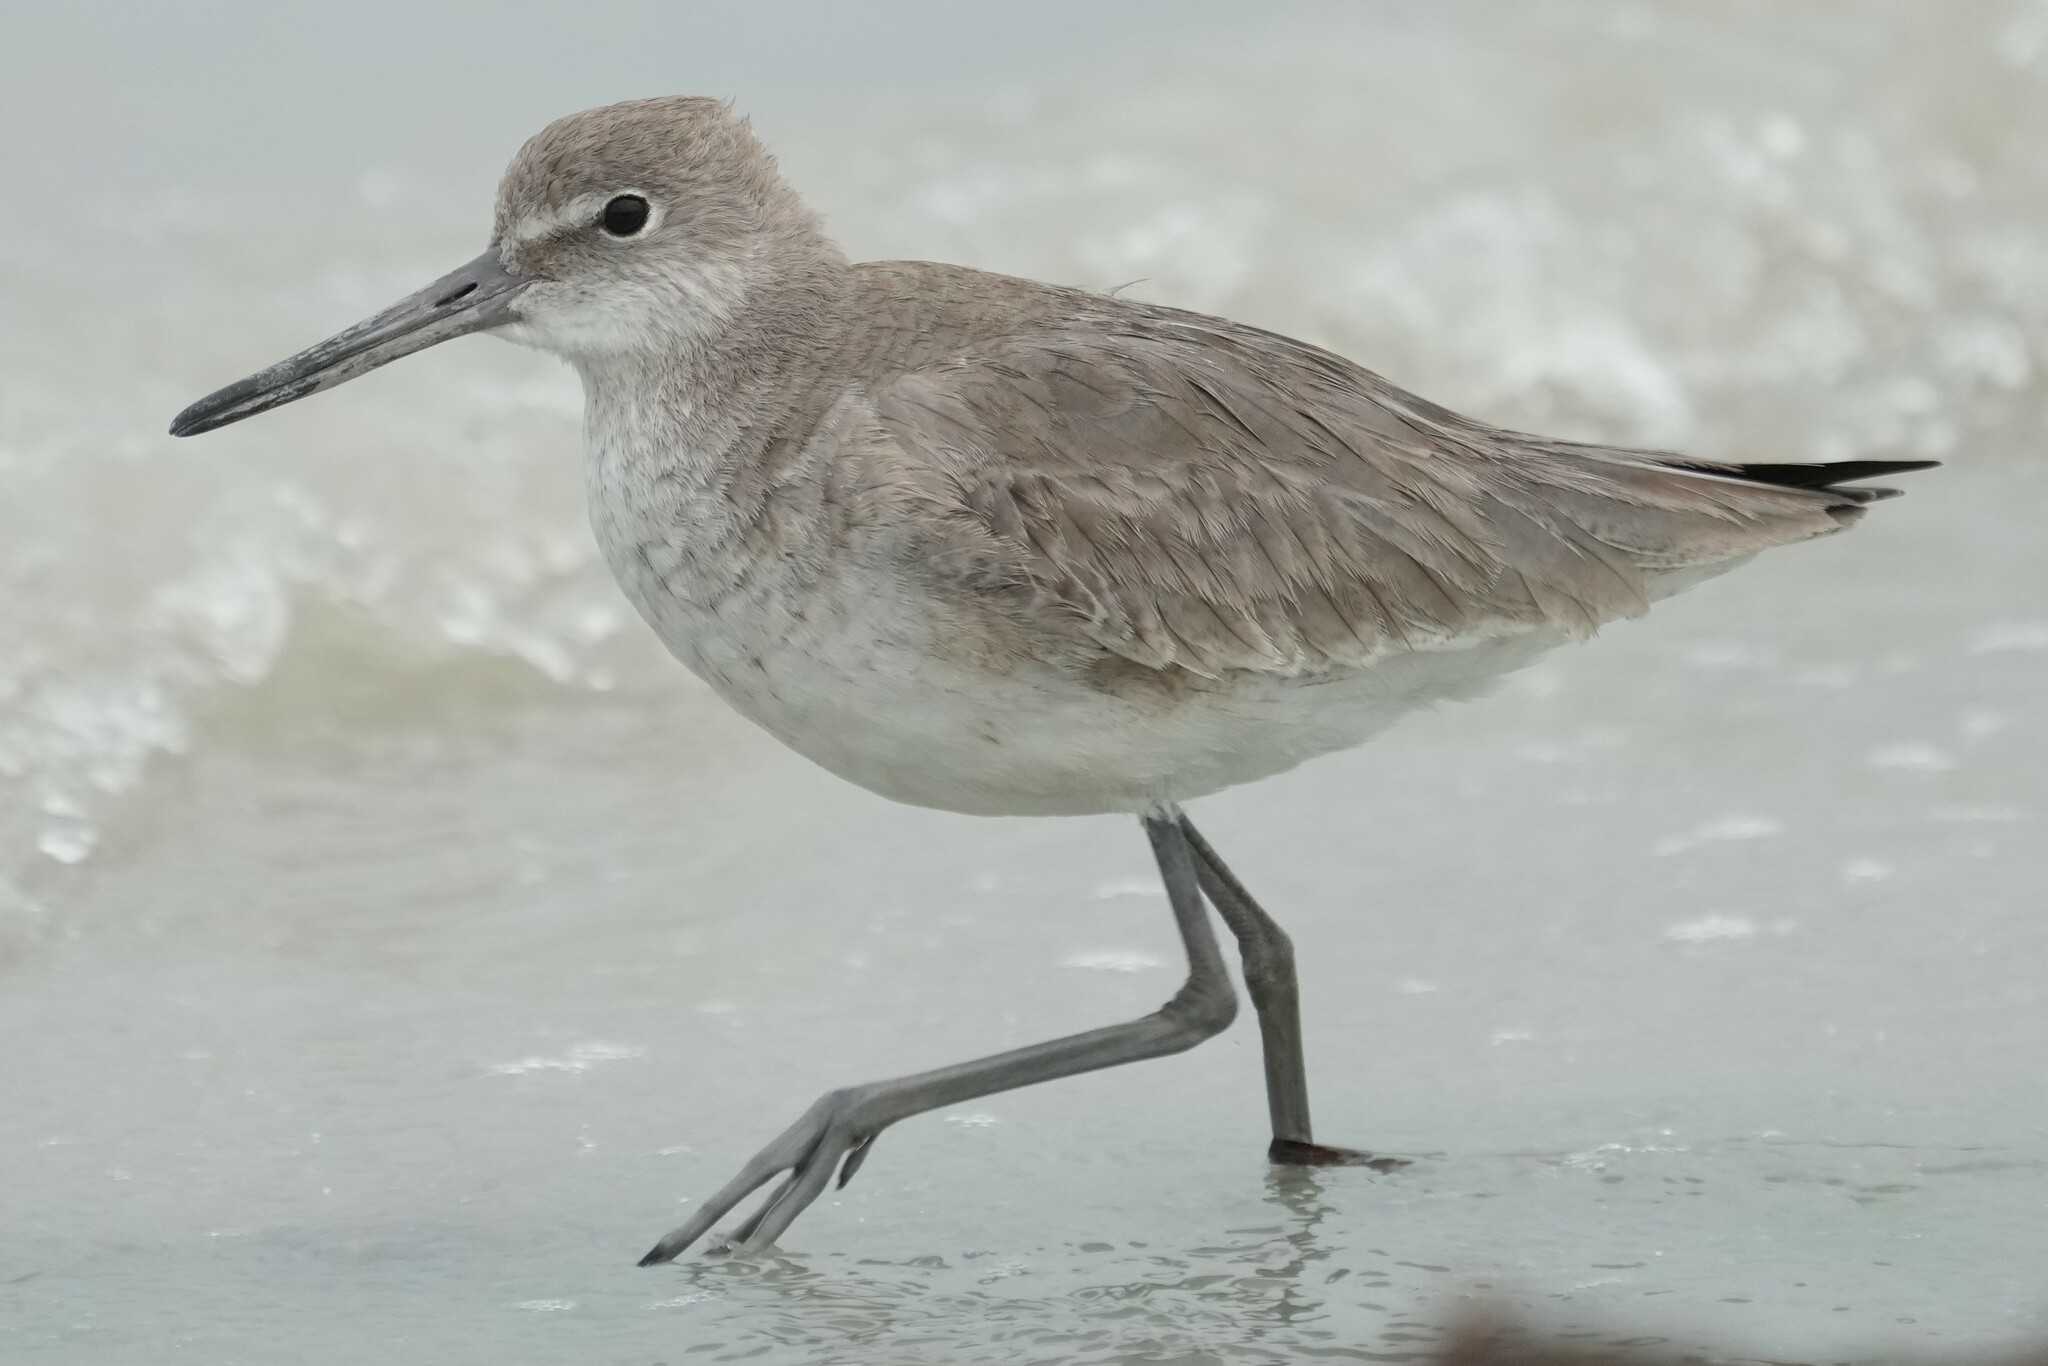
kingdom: Animalia
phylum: Chordata
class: Aves
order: Charadriiformes
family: Scolopacidae
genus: Tringa
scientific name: Tringa semipalmata
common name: Willet
